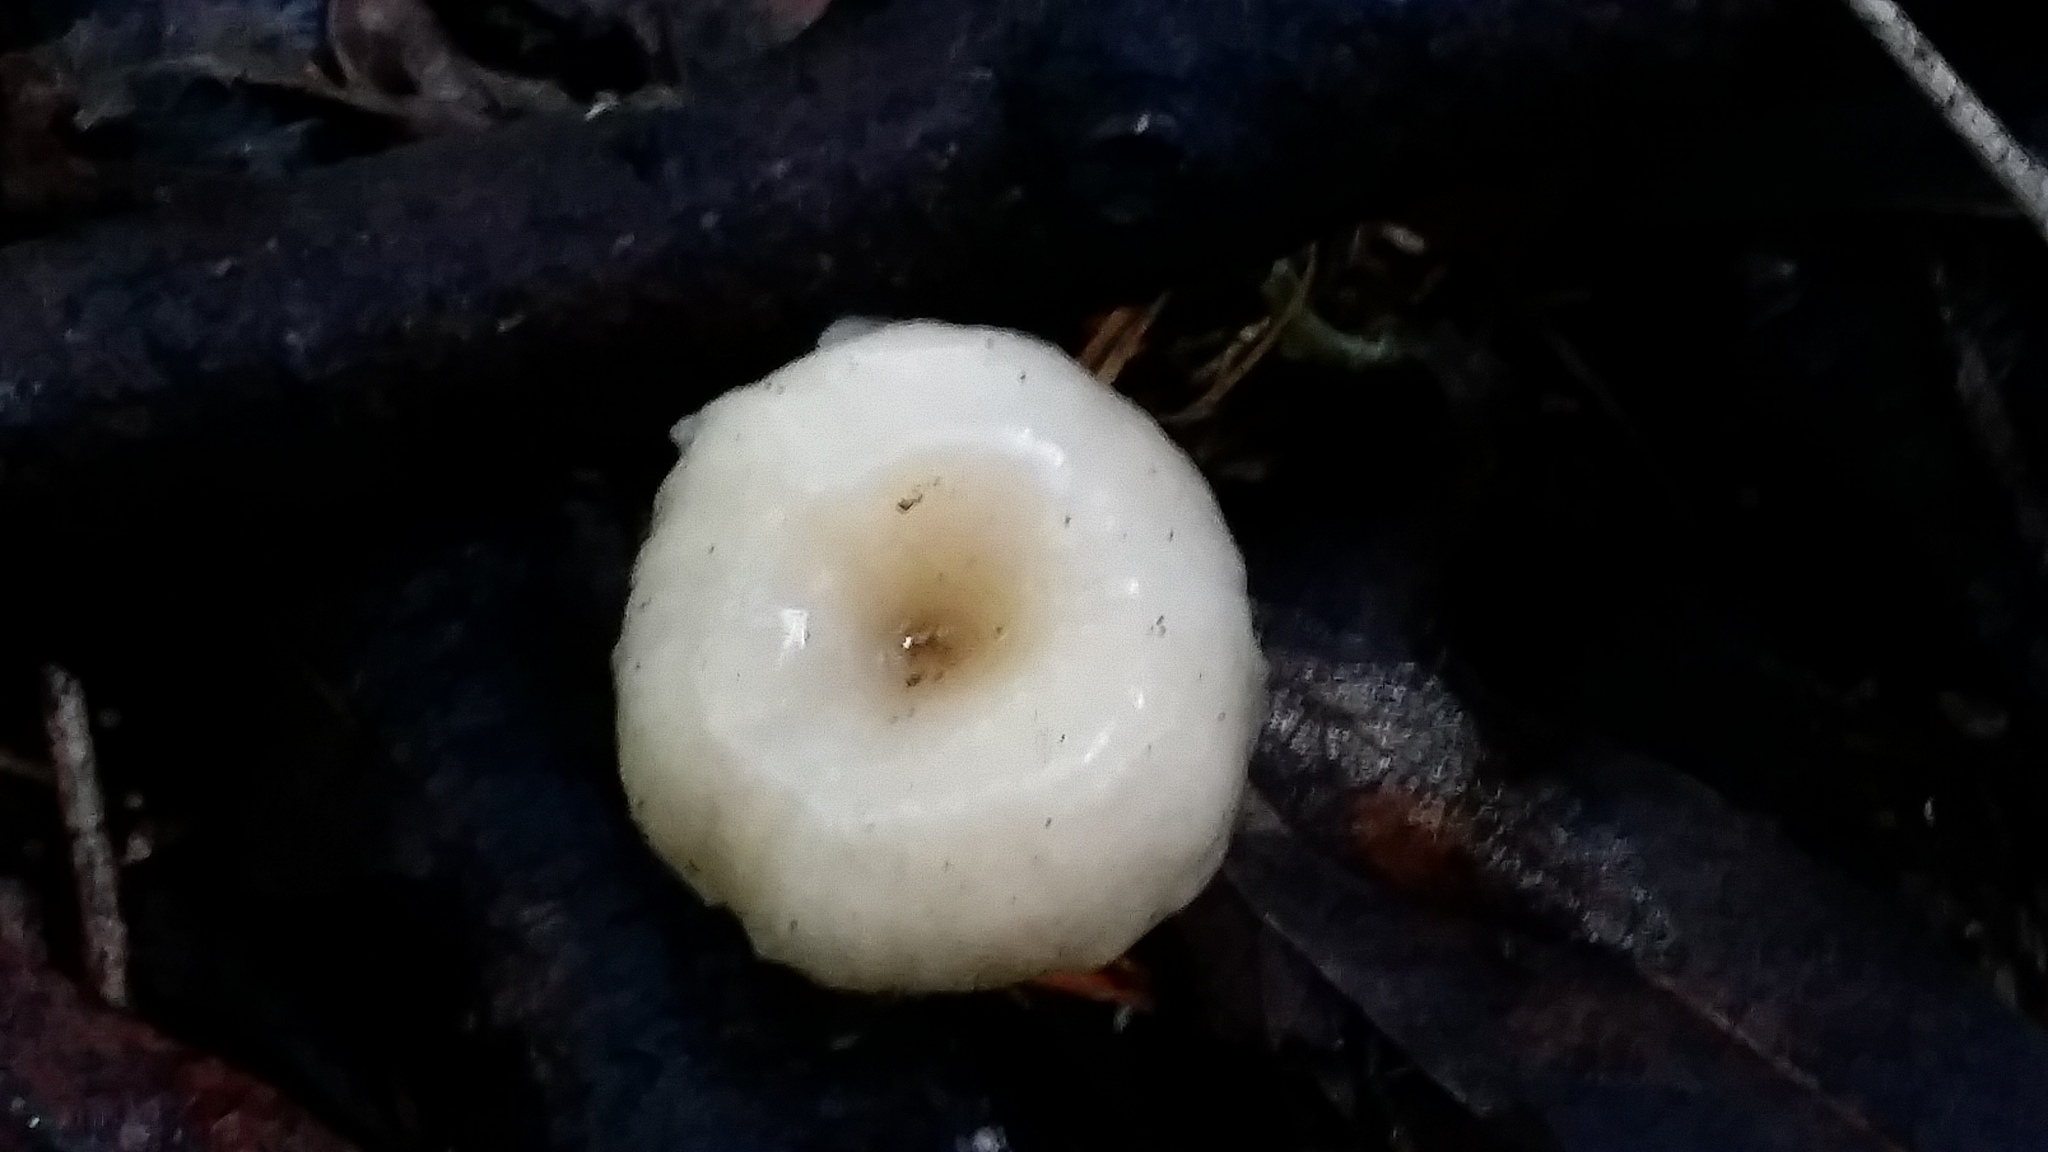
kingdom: Fungi
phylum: Basidiomycota
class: Agaricomycetes
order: Agaricales
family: Tricholomataceae
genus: Clitocybe
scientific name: Clitocybe fragrans
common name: Fragrant funnel
